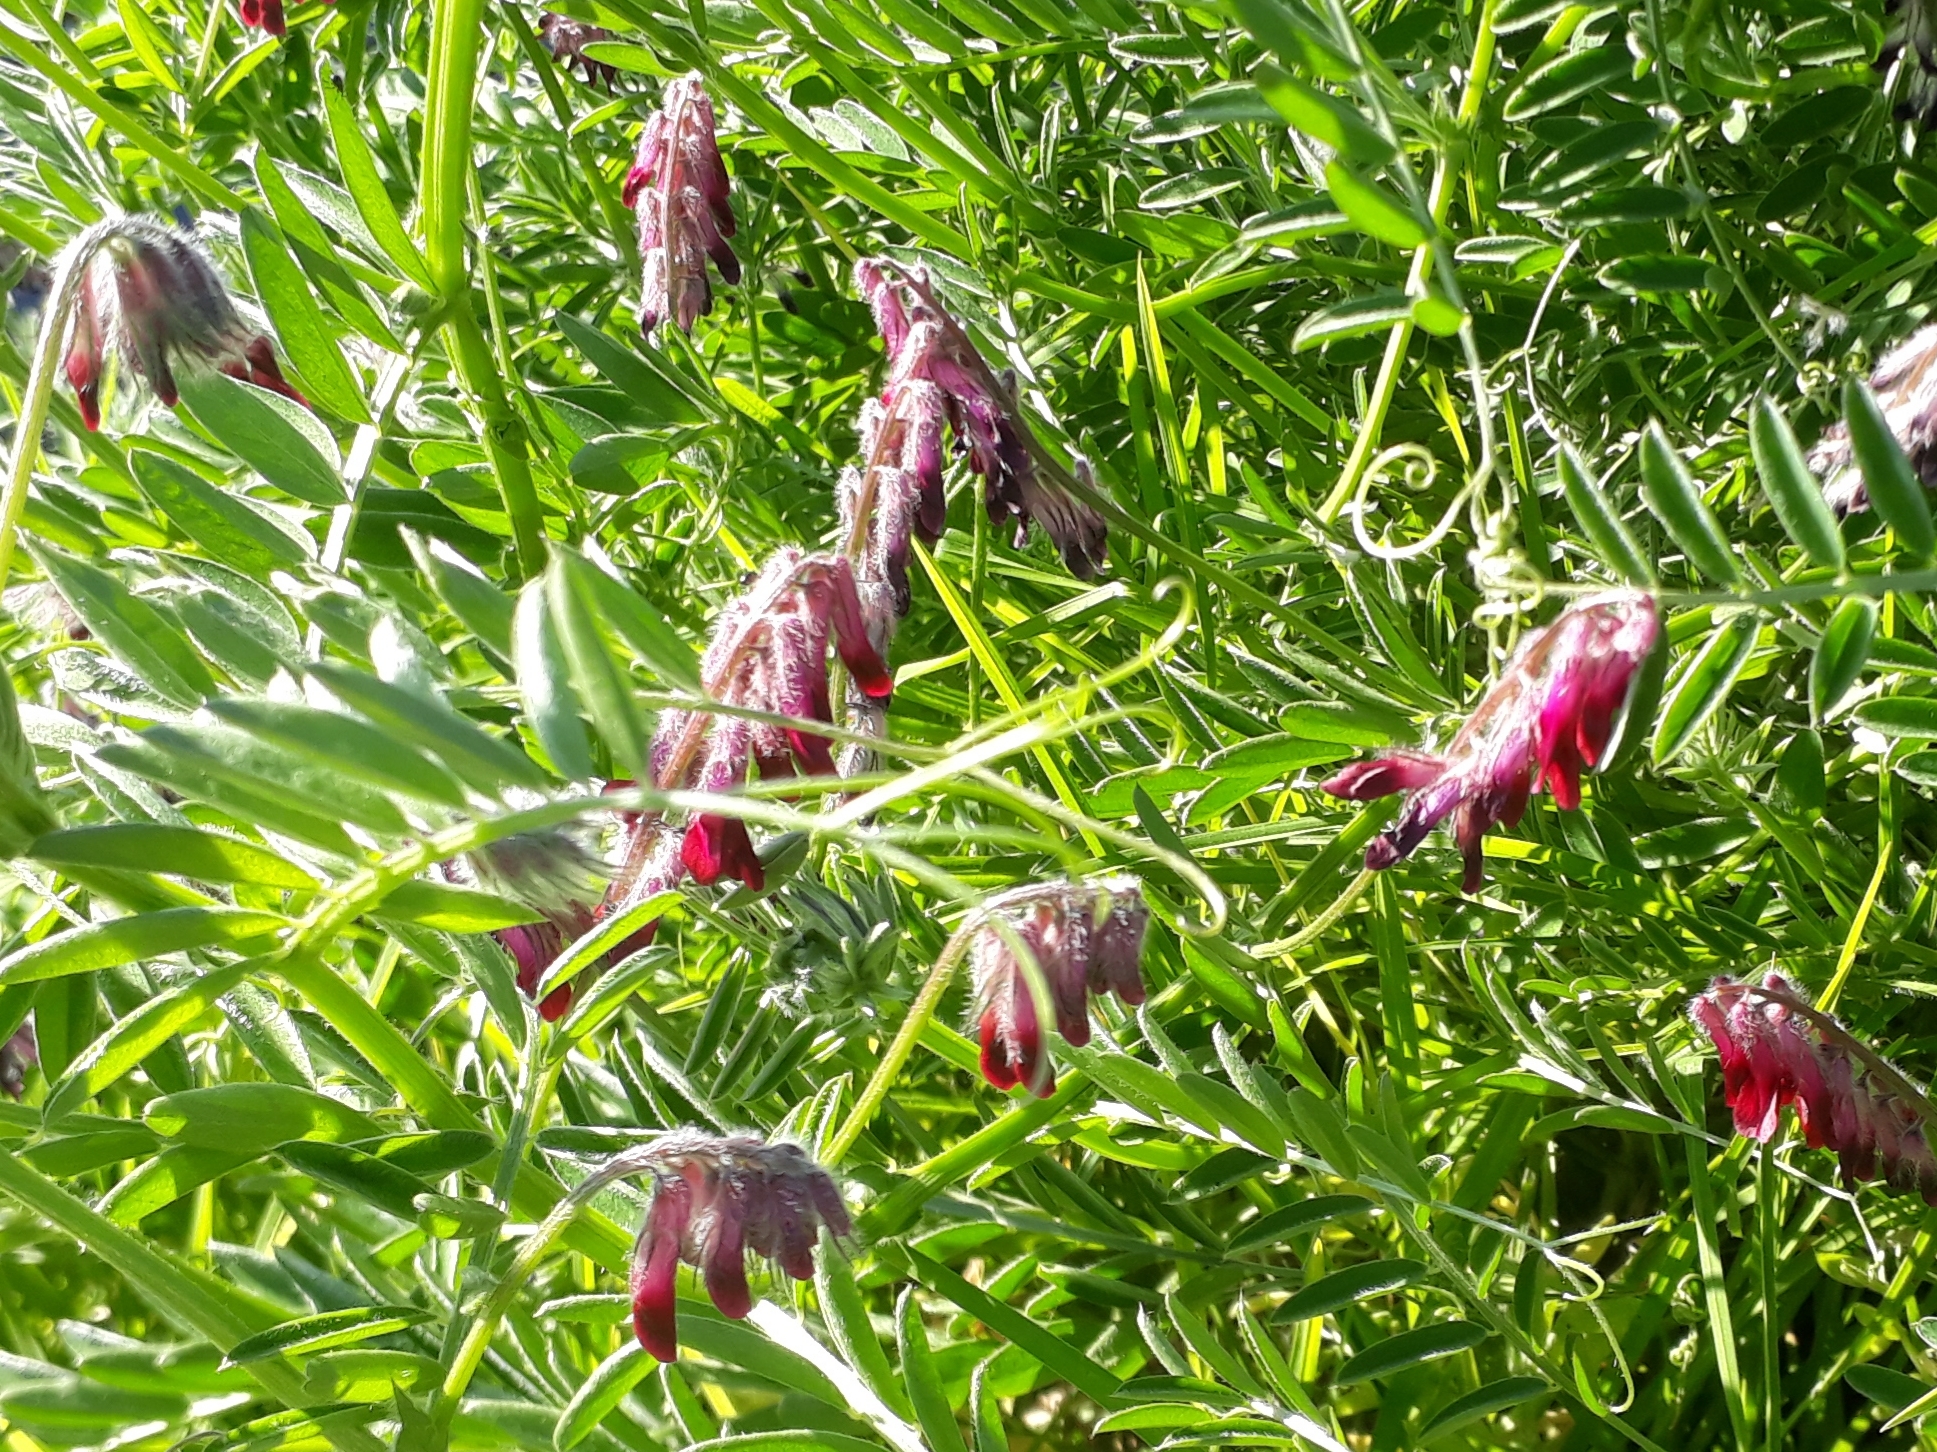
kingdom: Plantae
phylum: Tracheophyta
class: Magnoliopsida
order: Fabales
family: Fabaceae
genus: Vicia
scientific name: Vicia benghalensis
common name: Purple vetch
